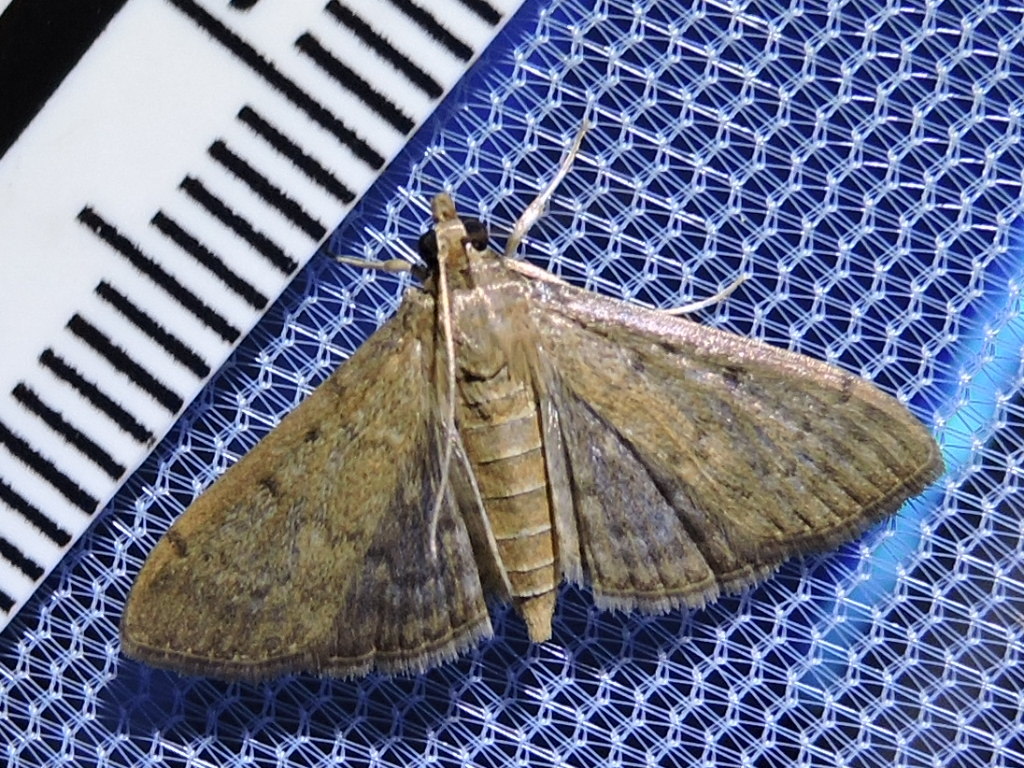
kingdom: Animalia
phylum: Arthropoda
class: Insecta
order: Lepidoptera
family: Crambidae
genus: Herpetogramma
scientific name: Herpetogramma phaeopteralis
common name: Dusky herpetogramma moth
